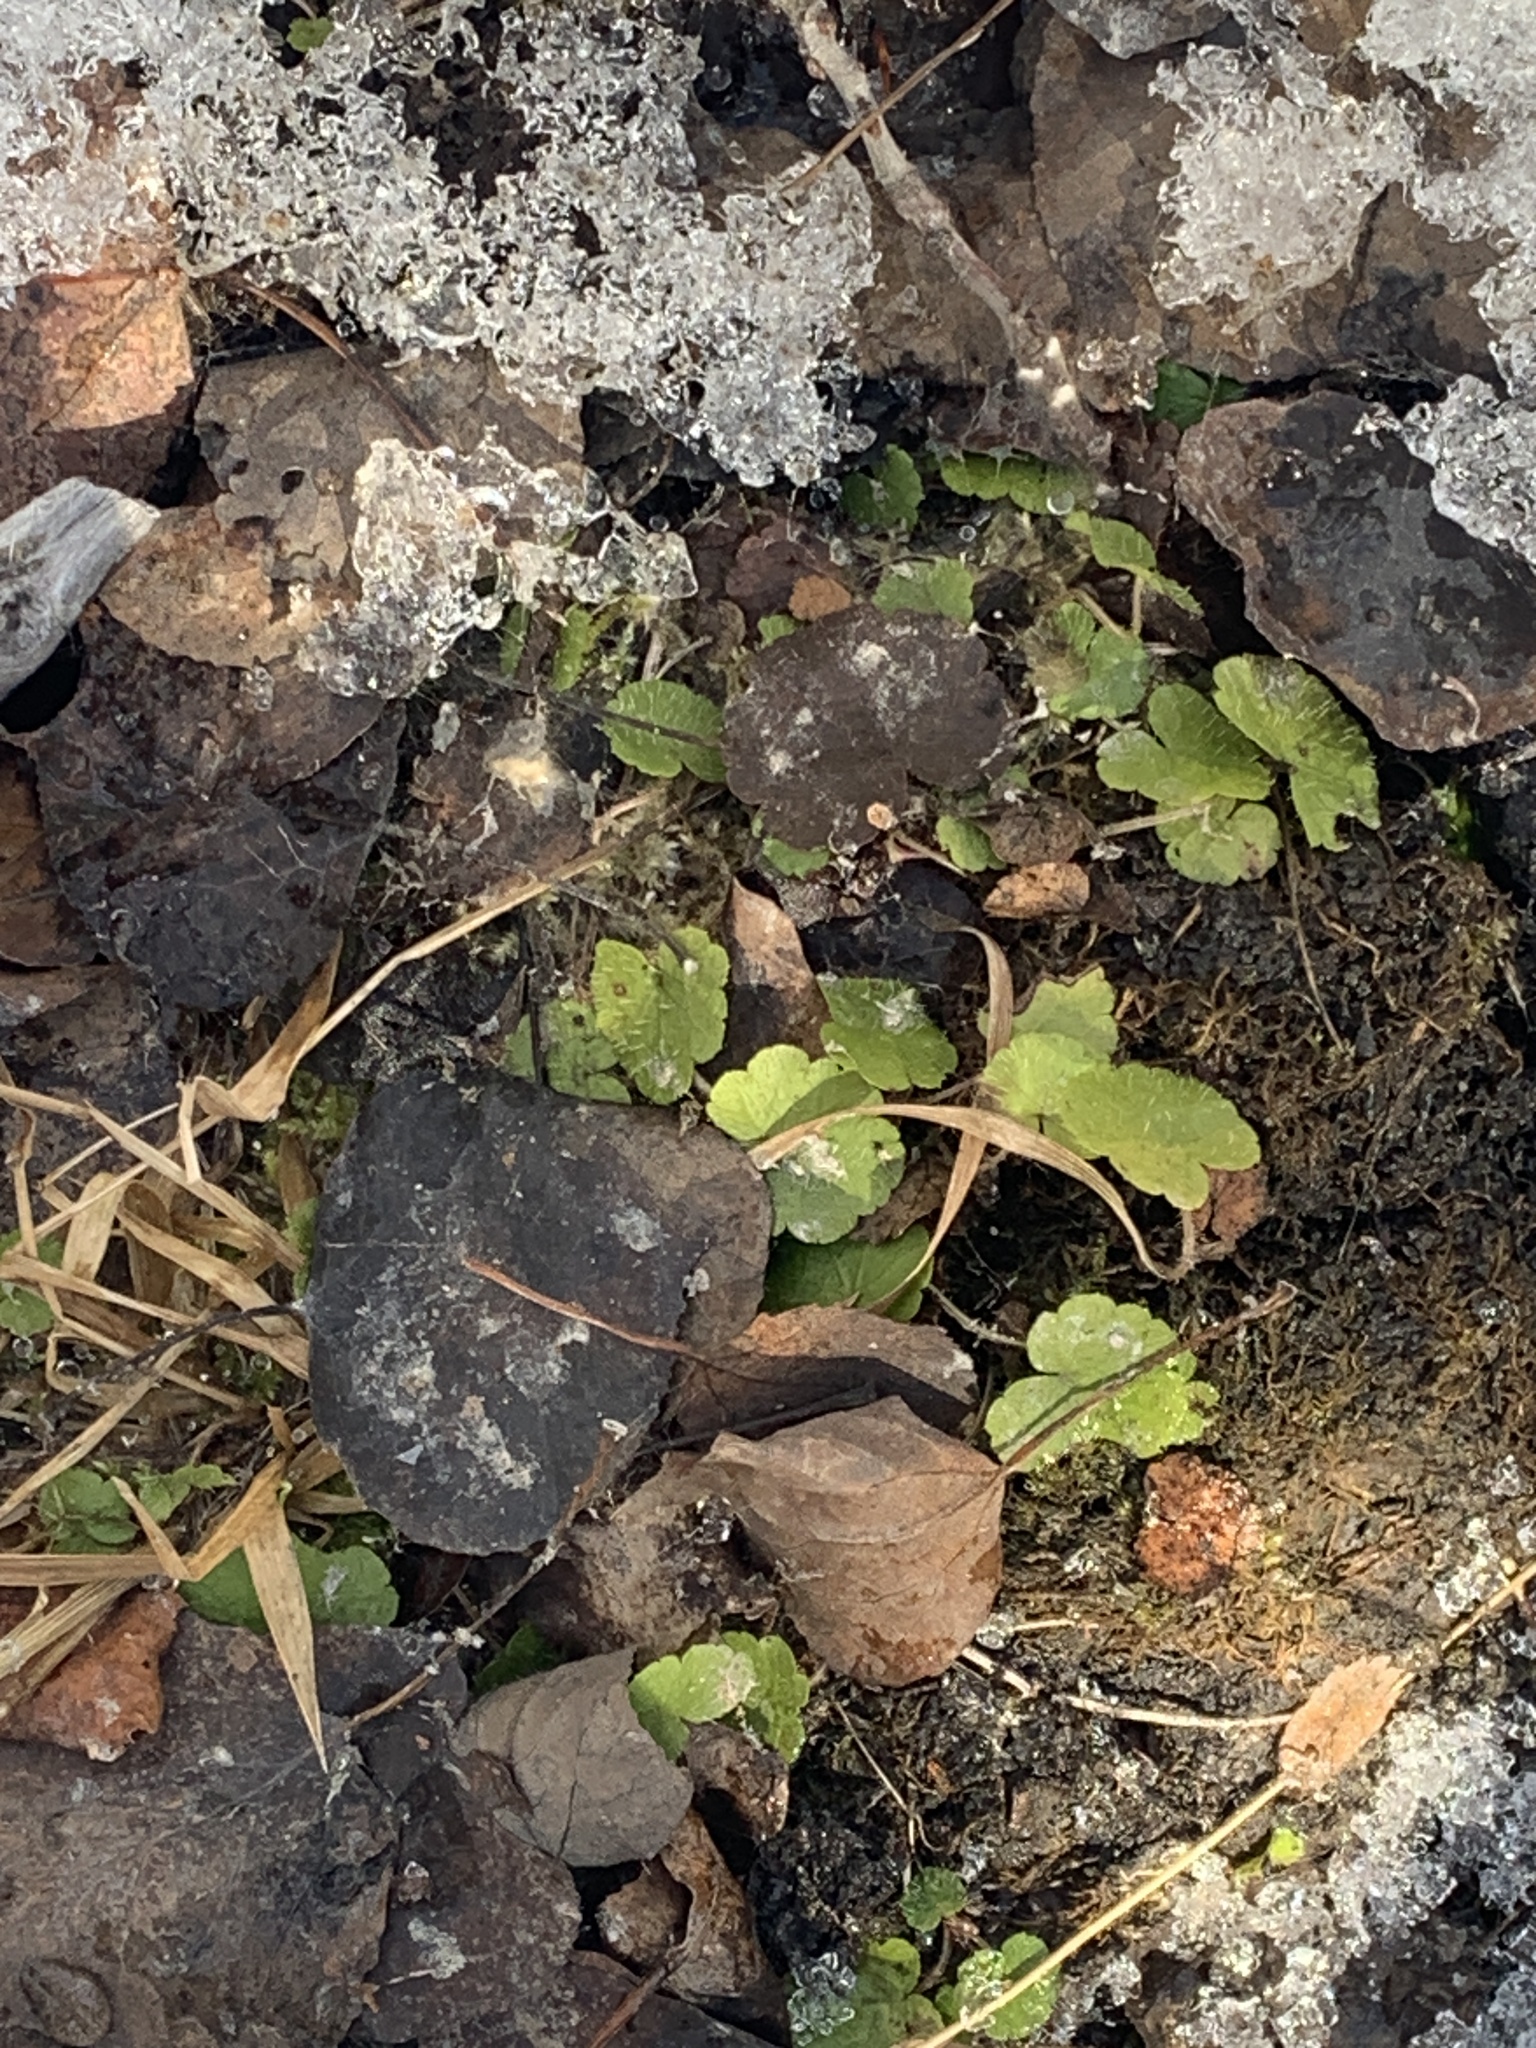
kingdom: Plantae
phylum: Tracheophyta
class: Magnoliopsida
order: Saxifragales
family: Saxifragaceae
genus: Mitella
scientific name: Mitella nuda
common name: Bare-stemmed bishop's-cap
